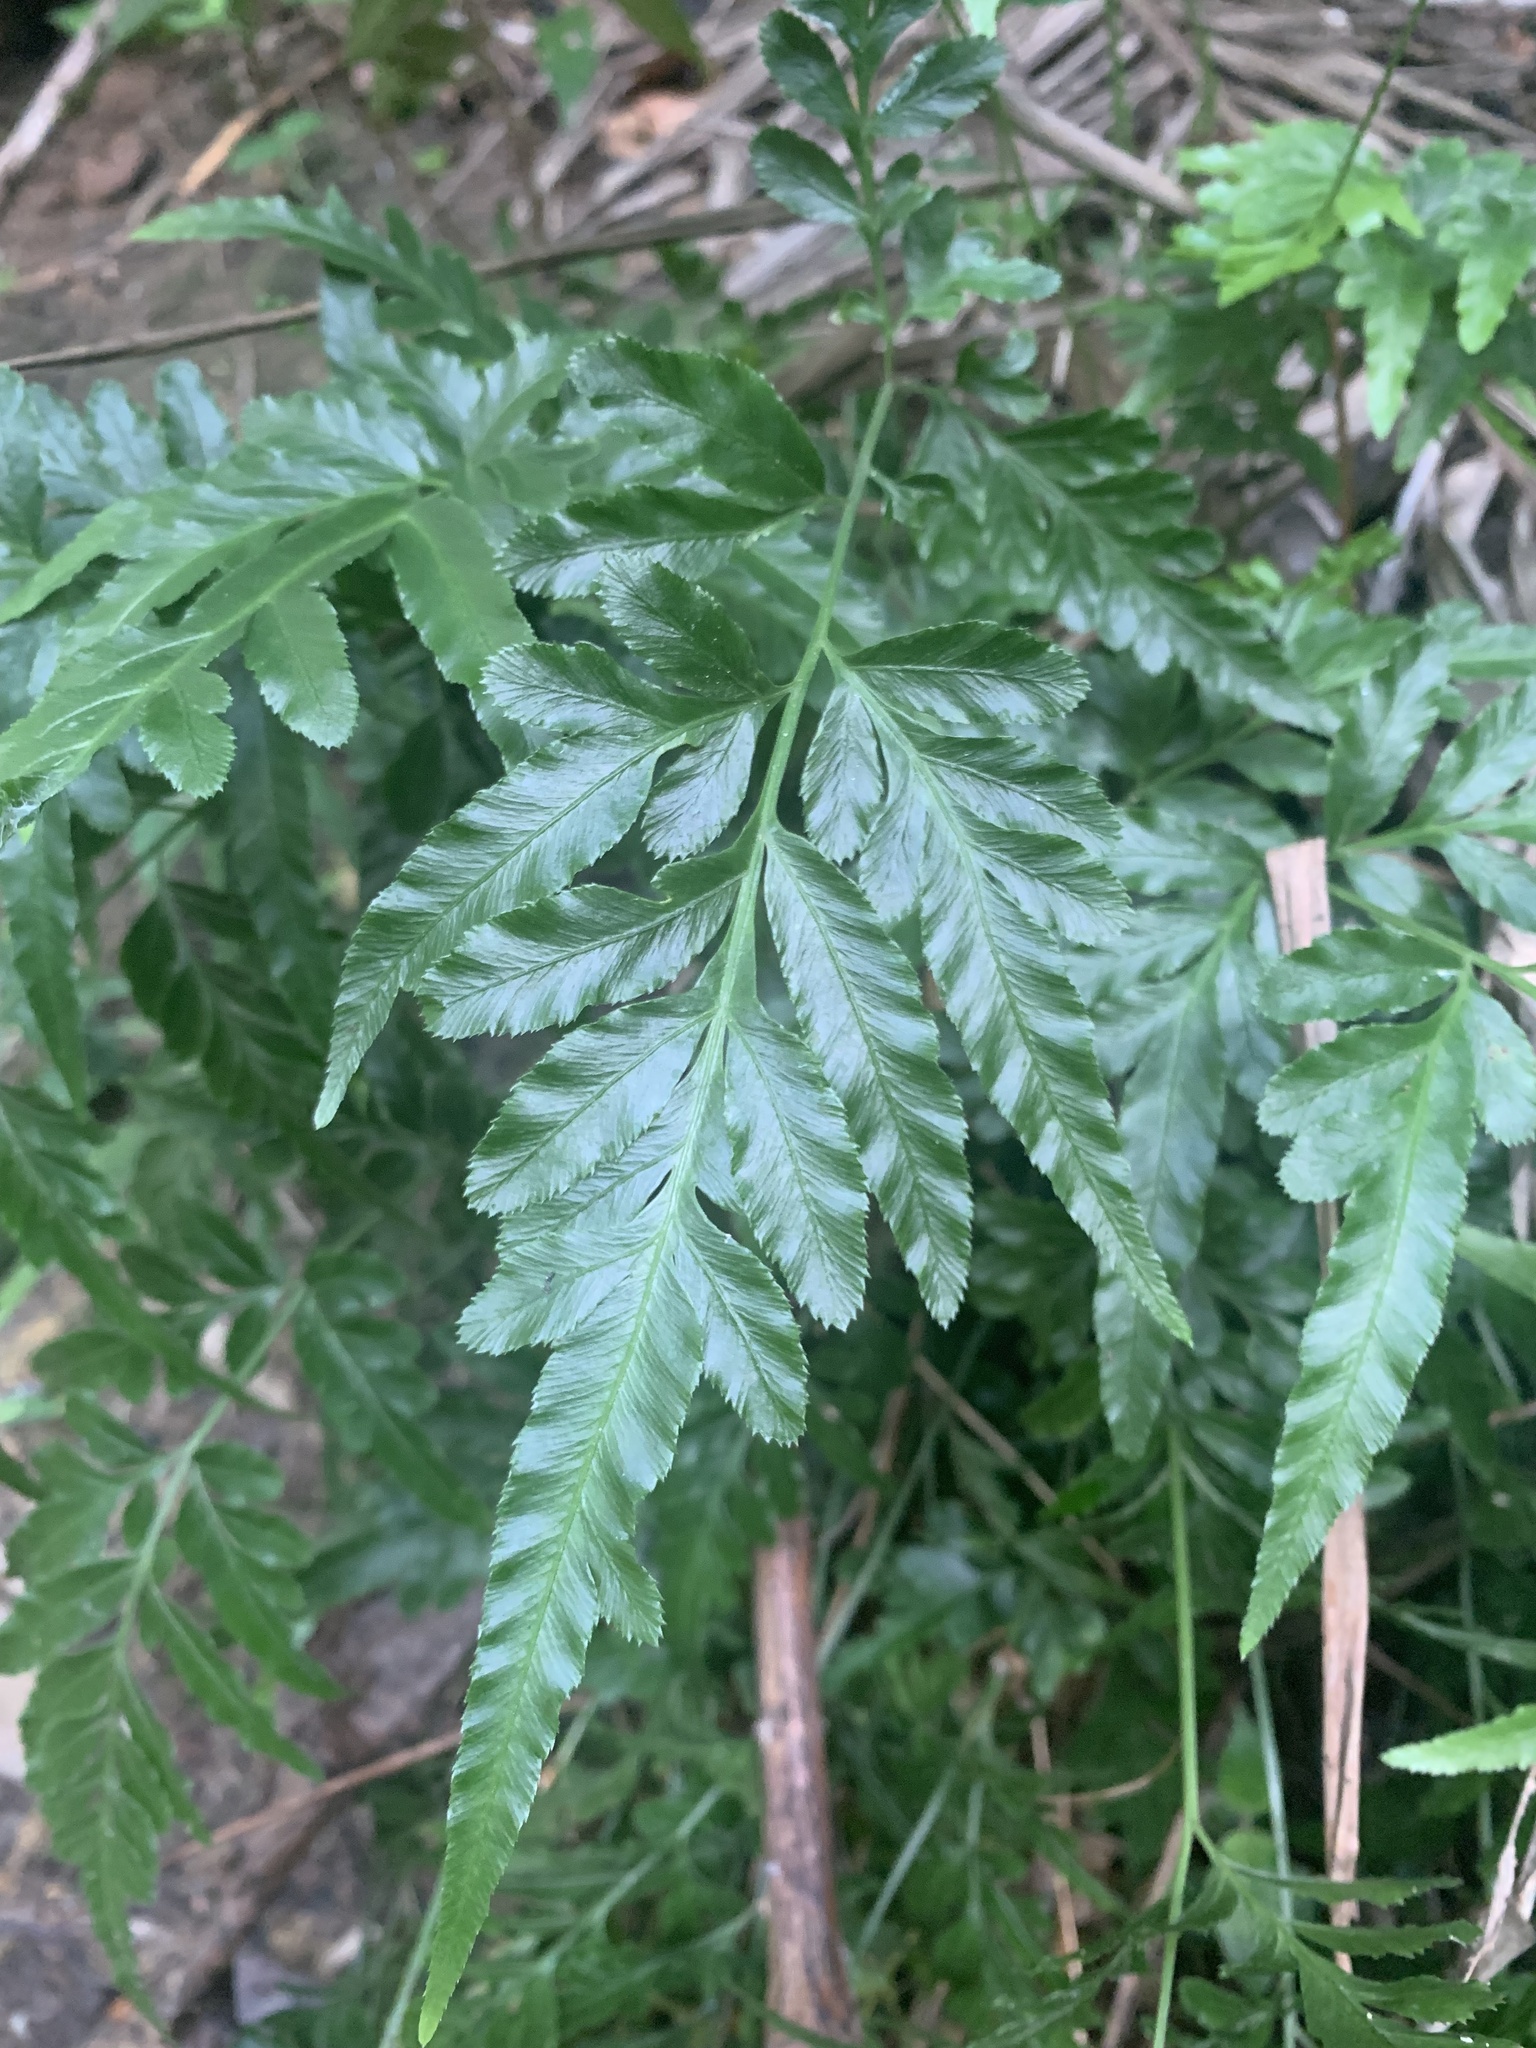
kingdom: Plantae
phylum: Tracheophyta
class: Polypodiopsida
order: Polypodiales
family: Pteridaceae
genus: Pteris
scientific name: Pteris ensiformis
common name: Sword brake
